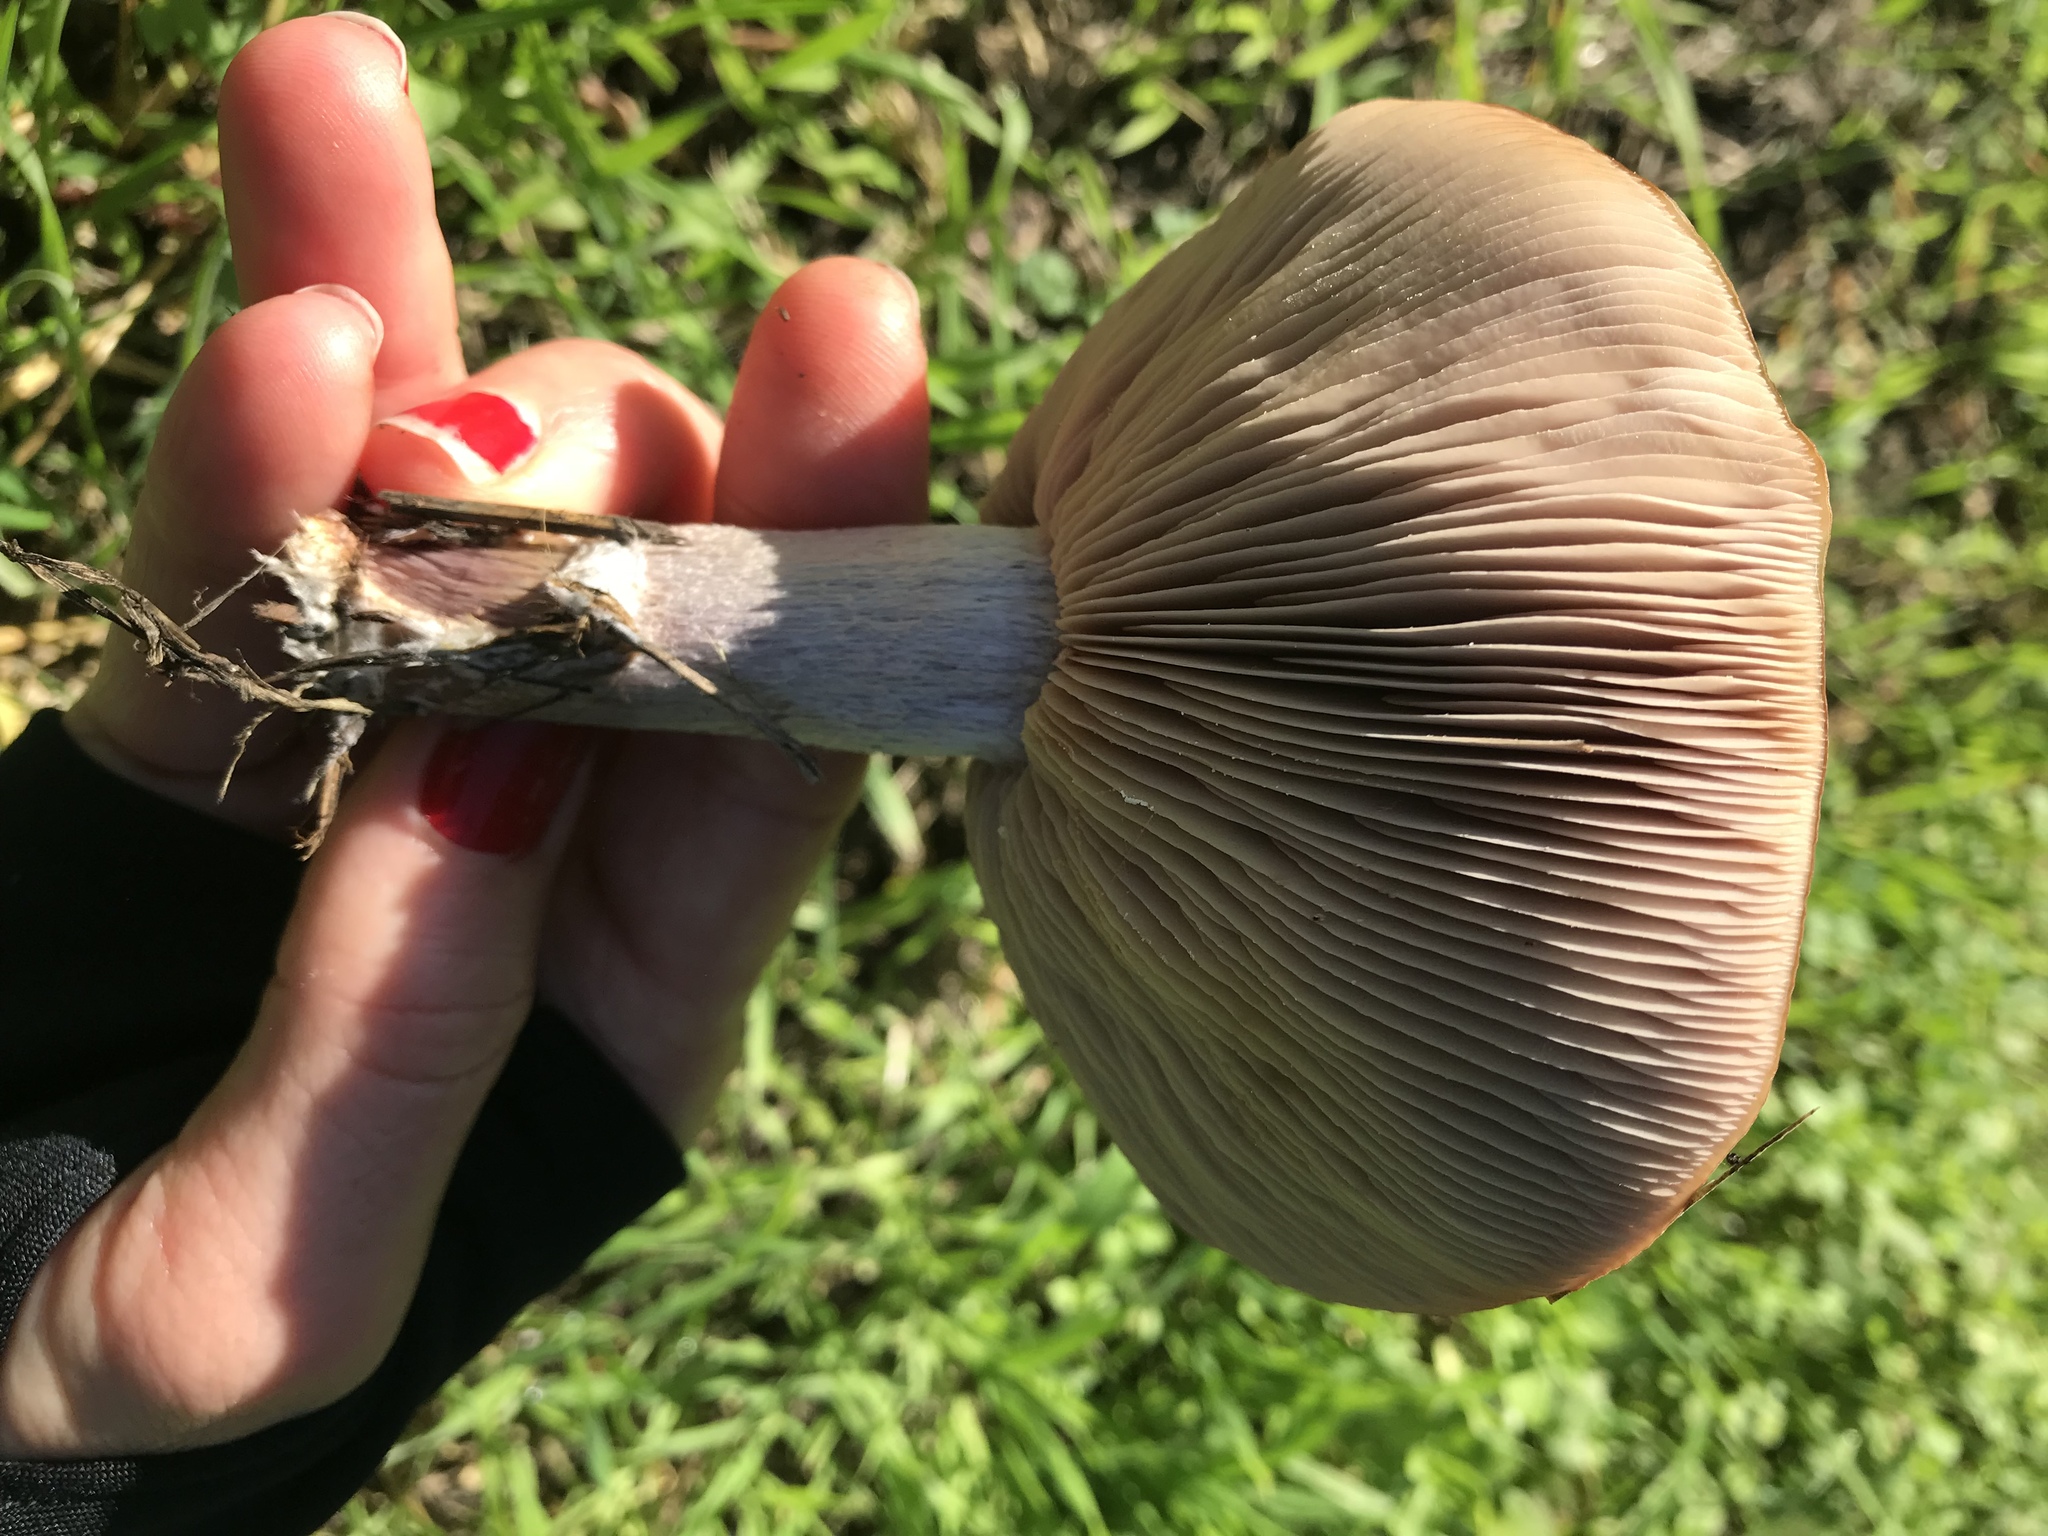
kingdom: Fungi
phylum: Basidiomycota
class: Agaricomycetes
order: Agaricales
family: Tricholomataceae
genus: Collybia
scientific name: Collybia
